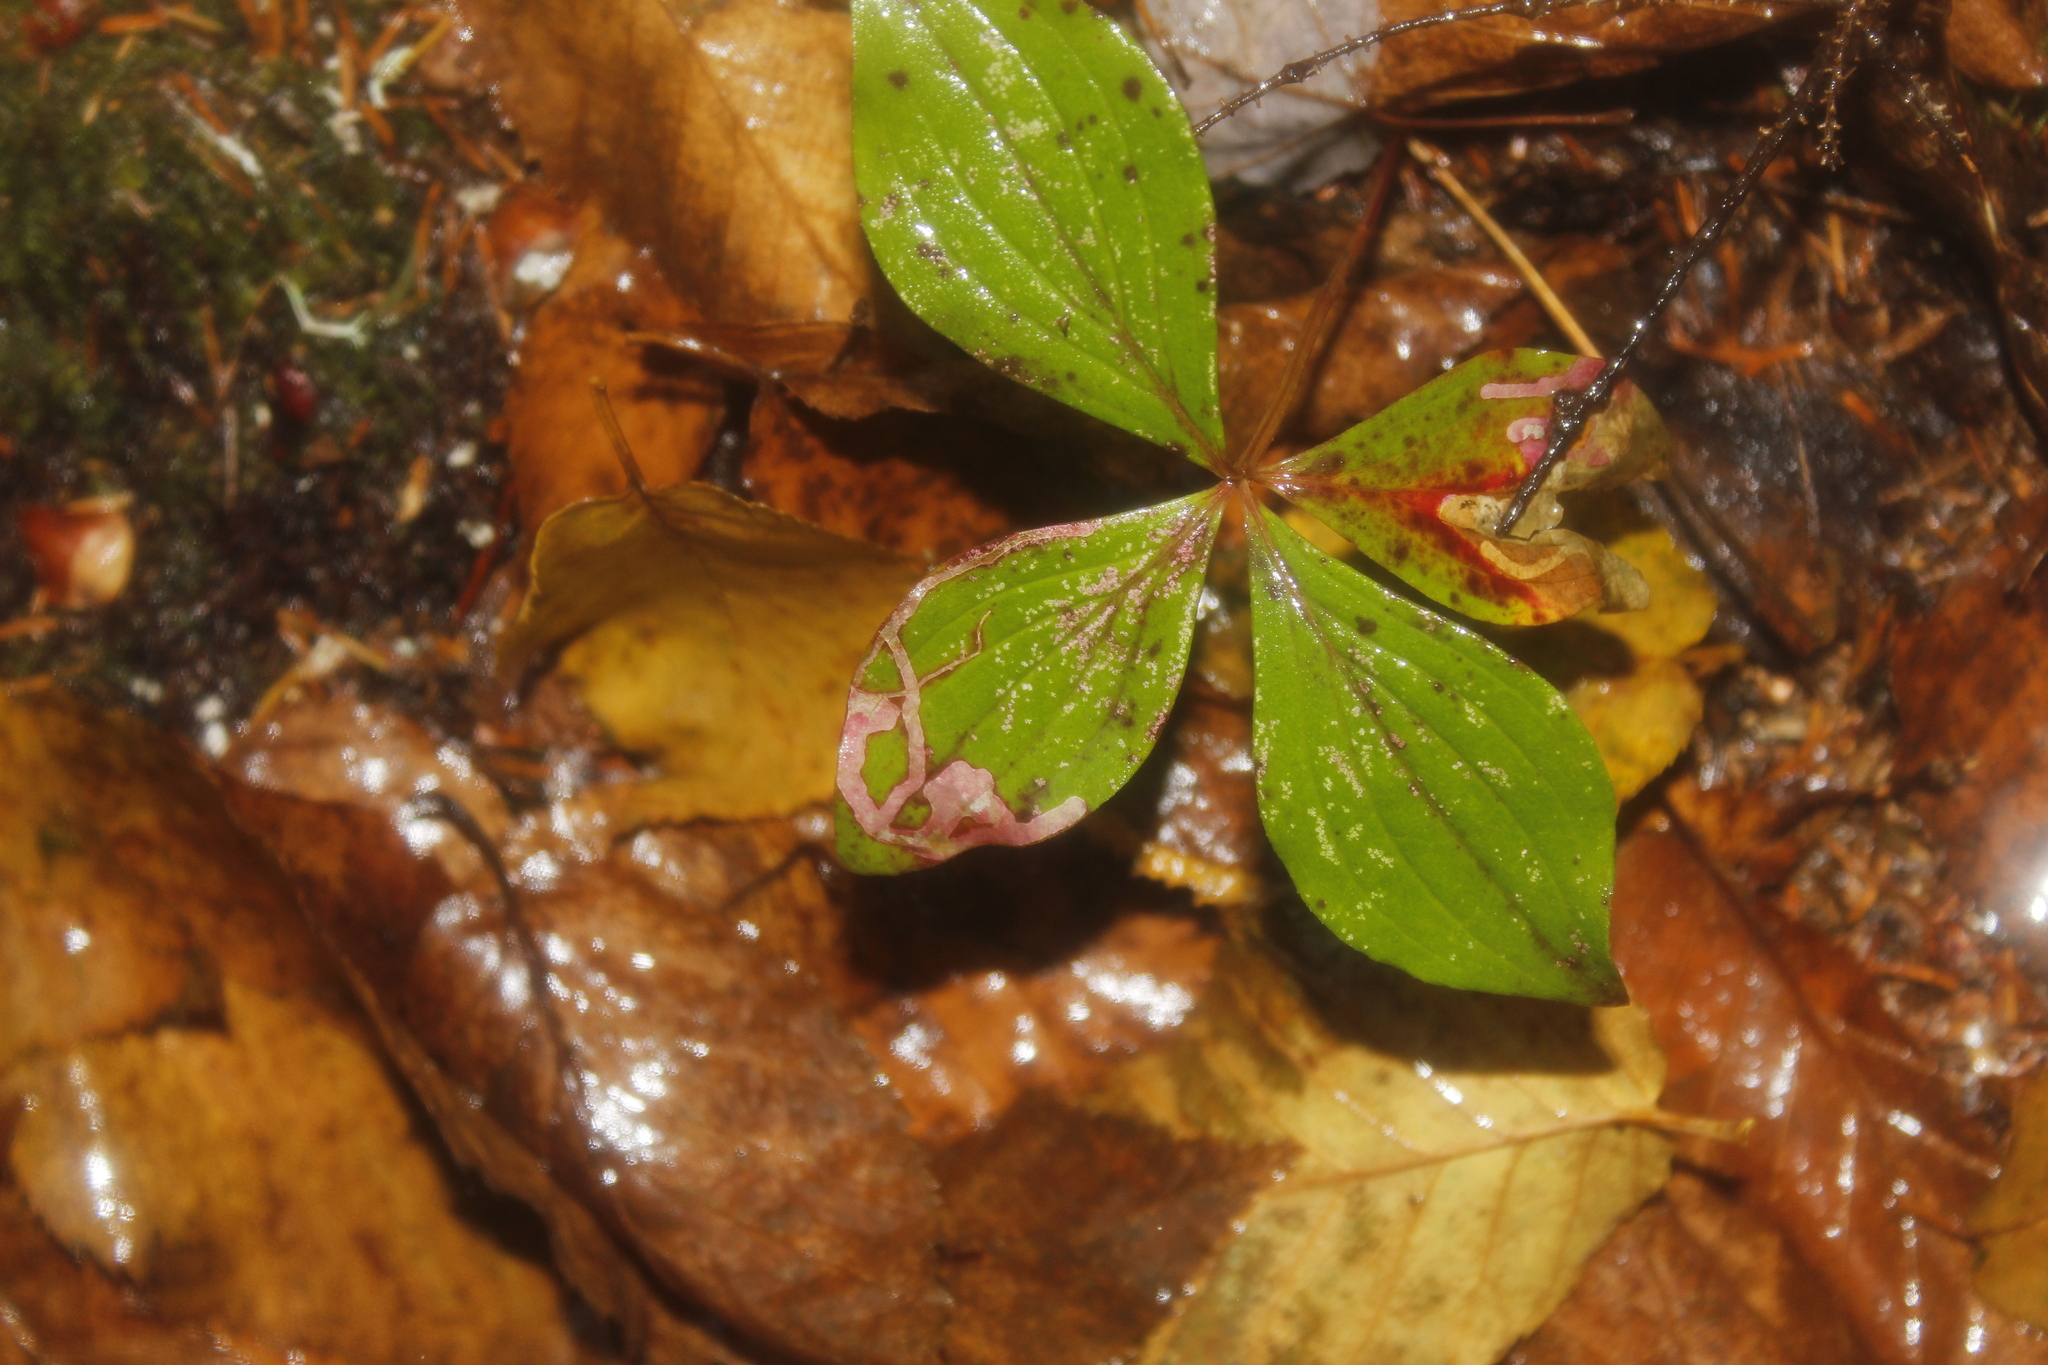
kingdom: Plantae
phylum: Tracheophyta
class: Magnoliopsida
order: Cornales
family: Cornaceae
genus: Cornus
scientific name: Cornus canadensis
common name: Creeping dogwood
